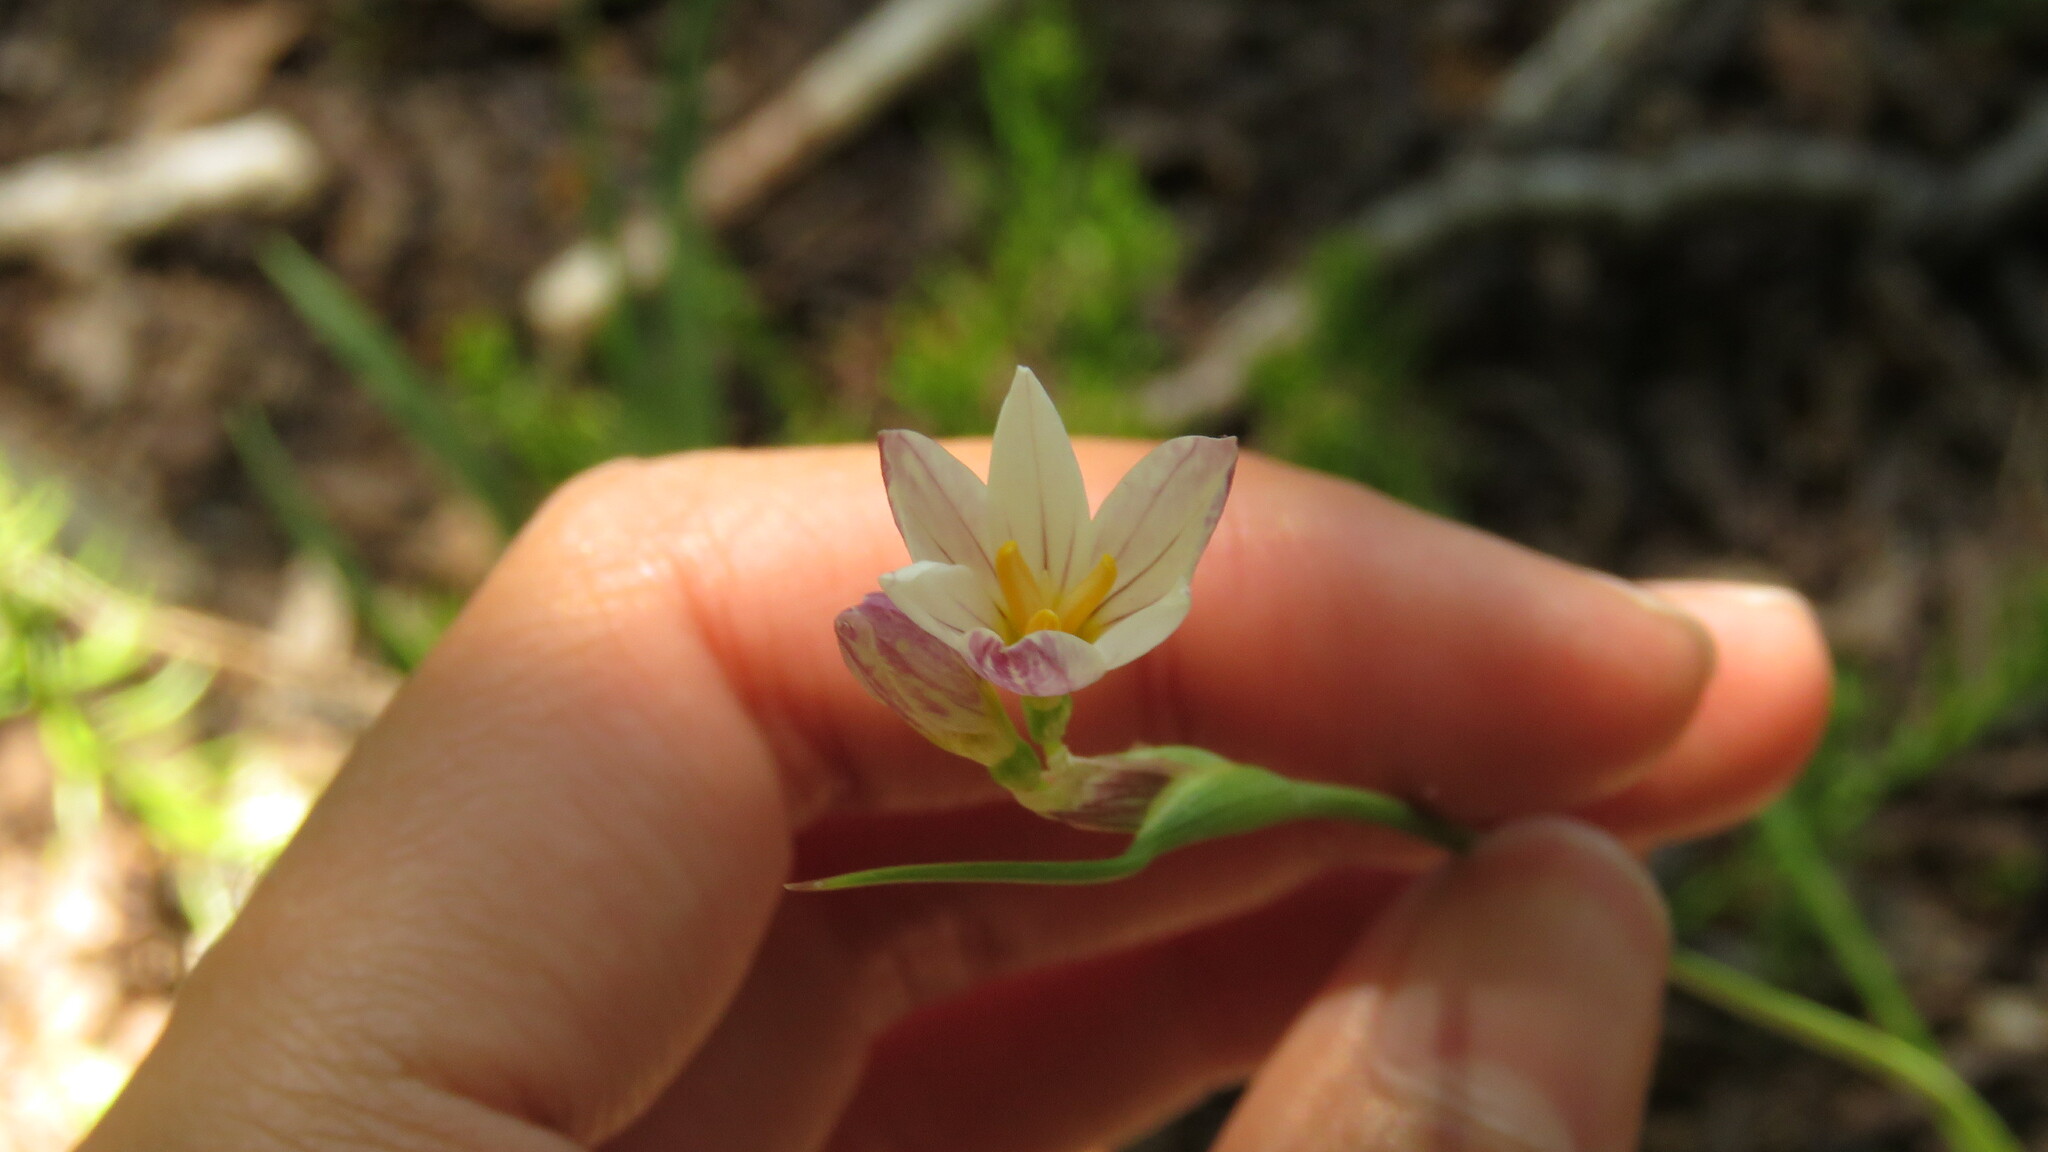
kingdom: Plantae
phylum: Tracheophyta
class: Liliopsida
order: Asparagales
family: Iridaceae
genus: Olsynium
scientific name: Olsynium junceum
